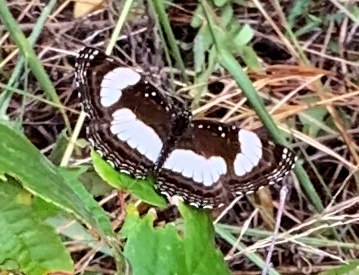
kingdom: Animalia
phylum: Arthropoda
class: Insecta
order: Lepidoptera
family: Nymphalidae
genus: Neptis
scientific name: Neptis laeta
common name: Common barred sailor
